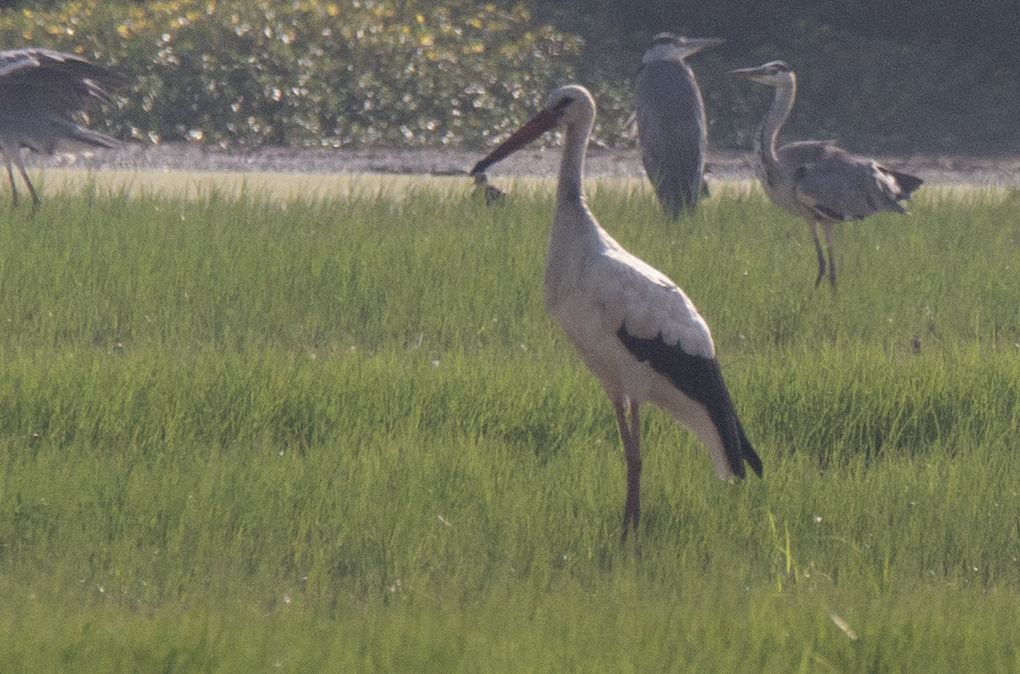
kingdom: Animalia
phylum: Chordata
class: Aves
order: Ciconiiformes
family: Ciconiidae
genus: Ciconia
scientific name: Ciconia ciconia
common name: White stork
